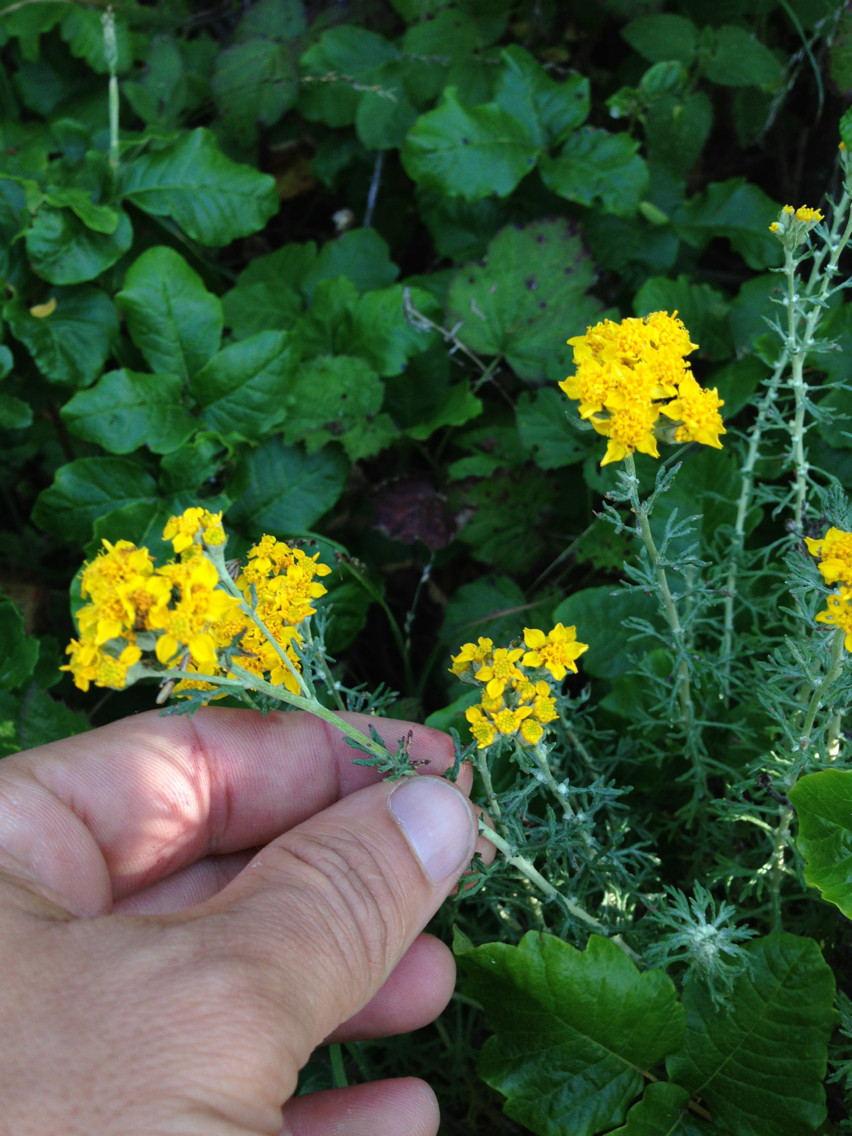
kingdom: Plantae
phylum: Tracheophyta
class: Magnoliopsida
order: Asterales
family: Asteraceae
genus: Eriophyllum
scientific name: Eriophyllum confertiflorum
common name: Golden-yarrow
